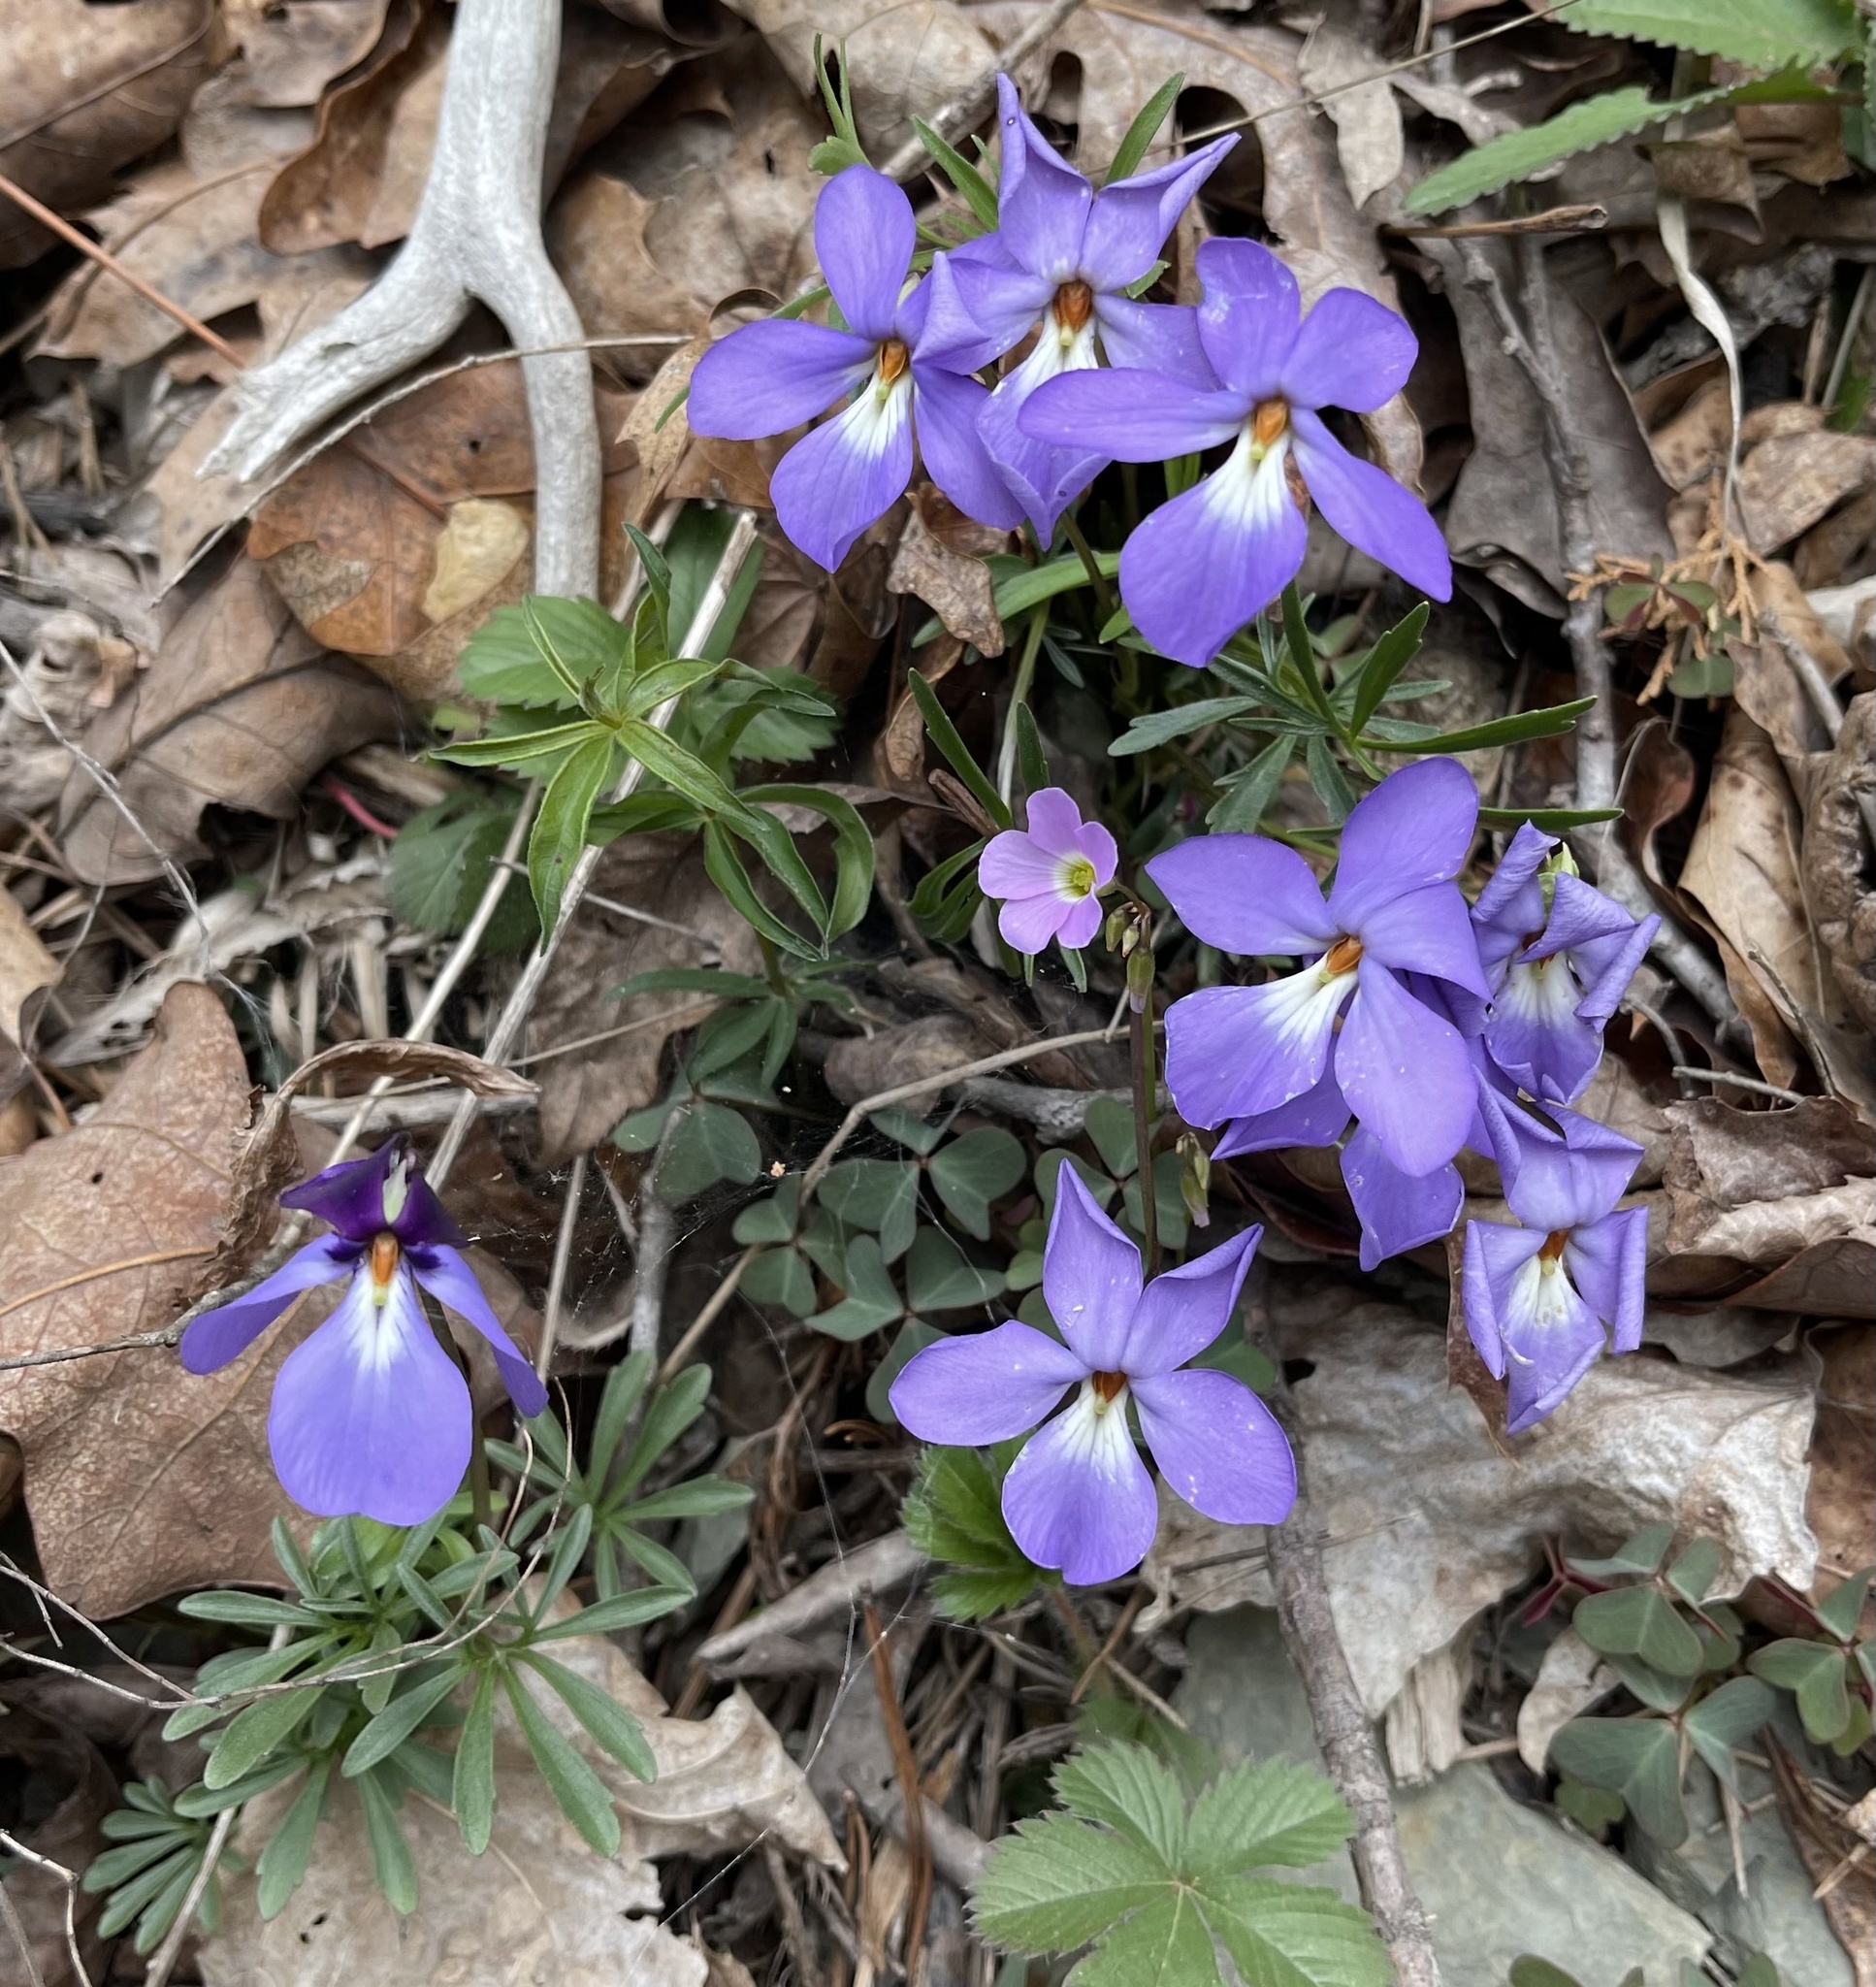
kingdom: Plantae
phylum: Tracheophyta
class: Magnoliopsida
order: Malpighiales
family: Violaceae
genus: Viola
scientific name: Viola pedata
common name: Pansy violet
